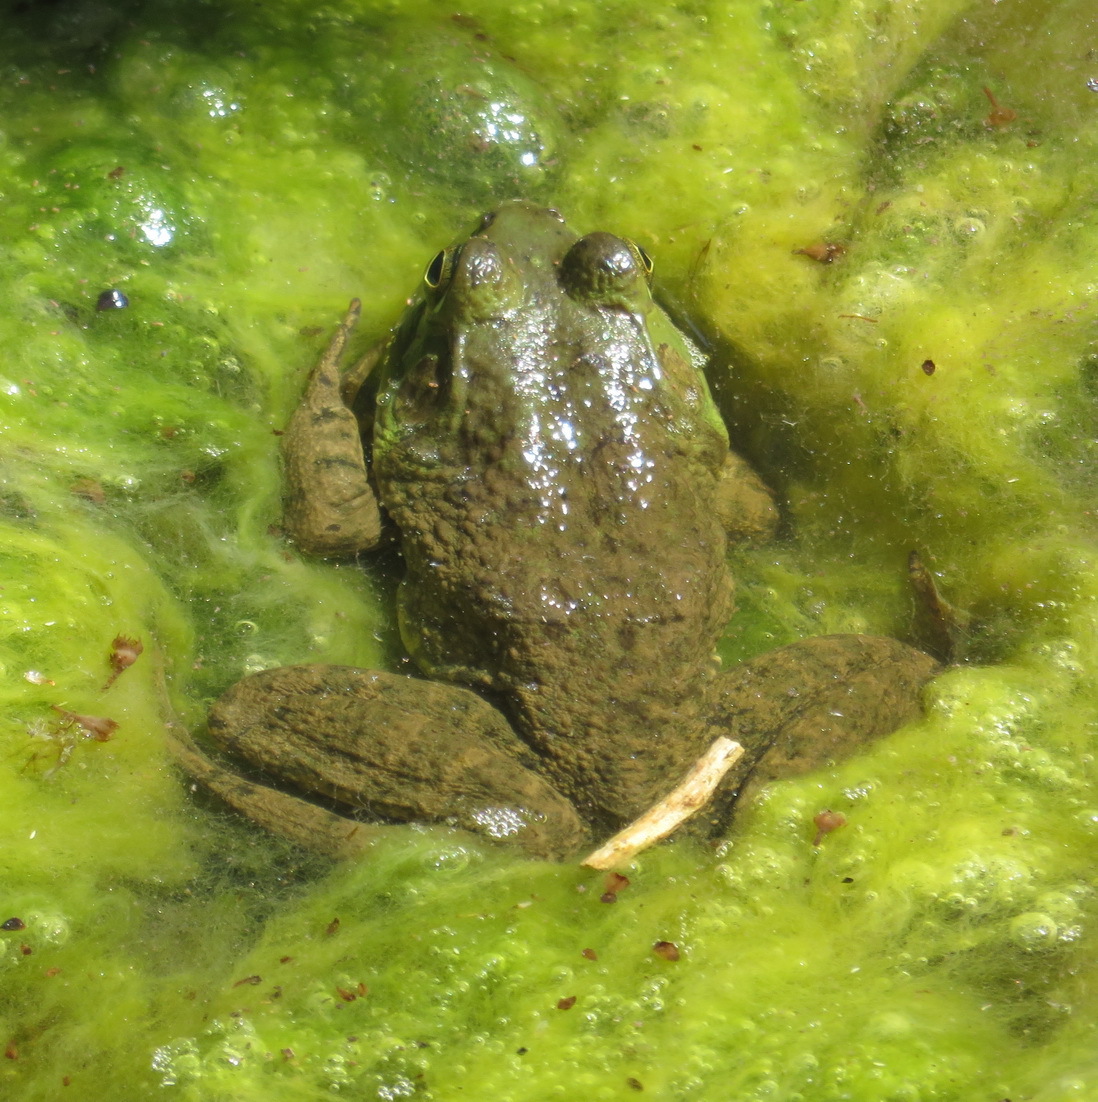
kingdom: Animalia
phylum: Chordata
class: Amphibia
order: Anura
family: Ranidae
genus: Lithobates
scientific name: Lithobates catesbeianus
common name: American bullfrog
